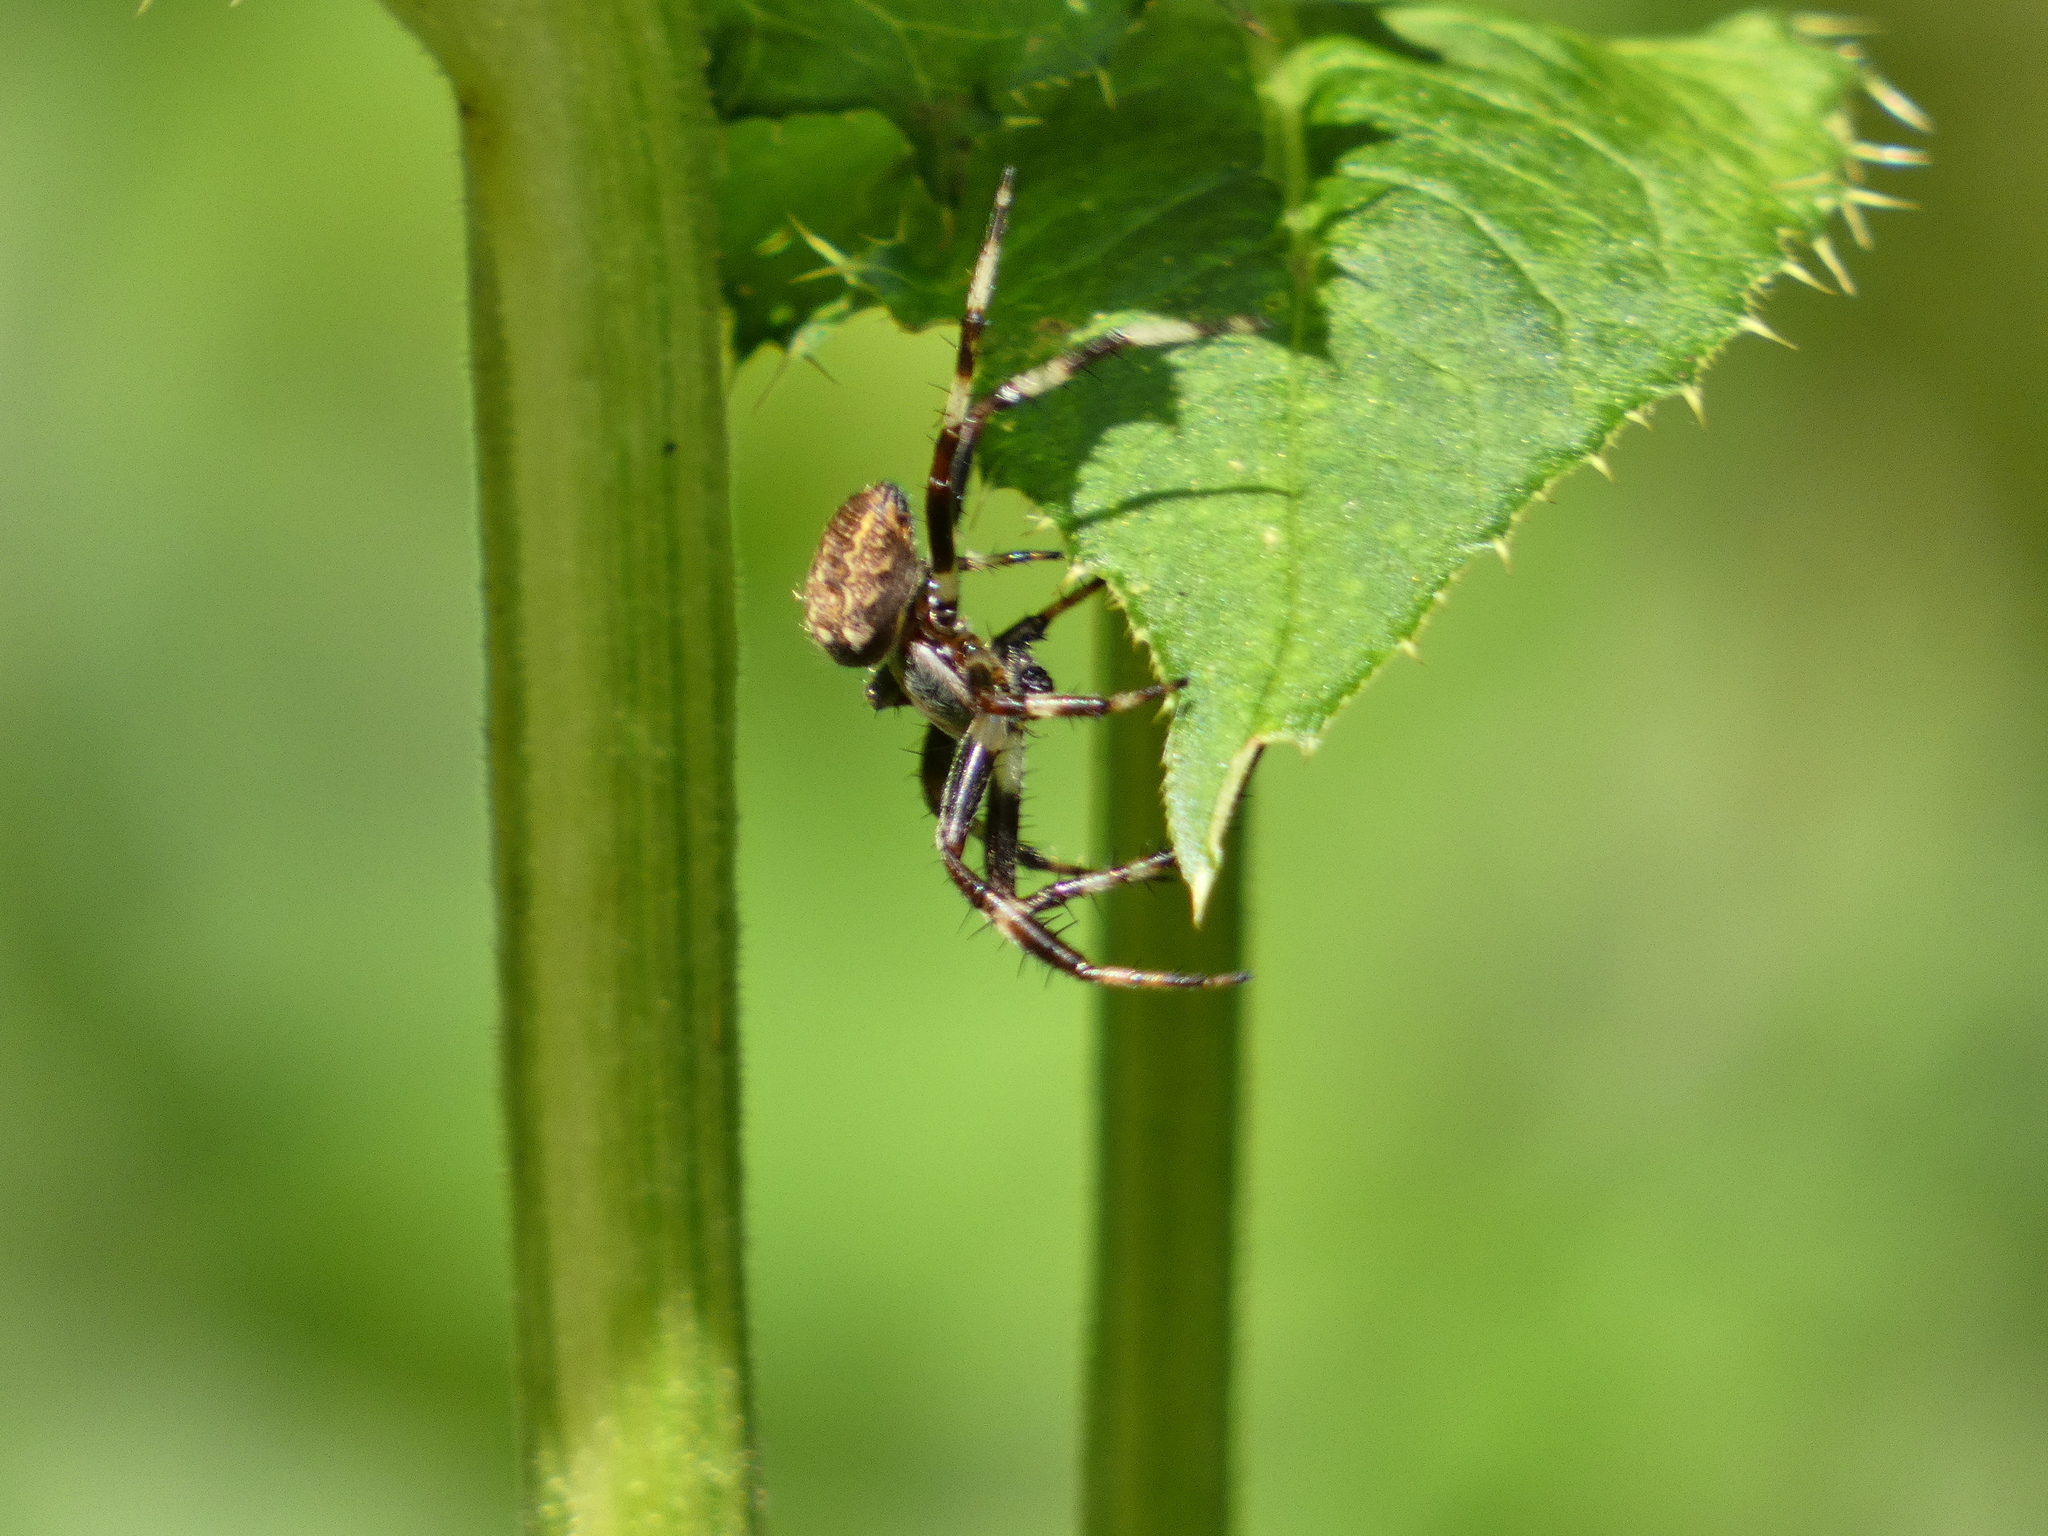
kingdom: Animalia
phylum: Arthropoda
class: Arachnida
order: Araneae
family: Araneidae
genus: Araneus
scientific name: Araneus marmoreus
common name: Marbled orbweaver
